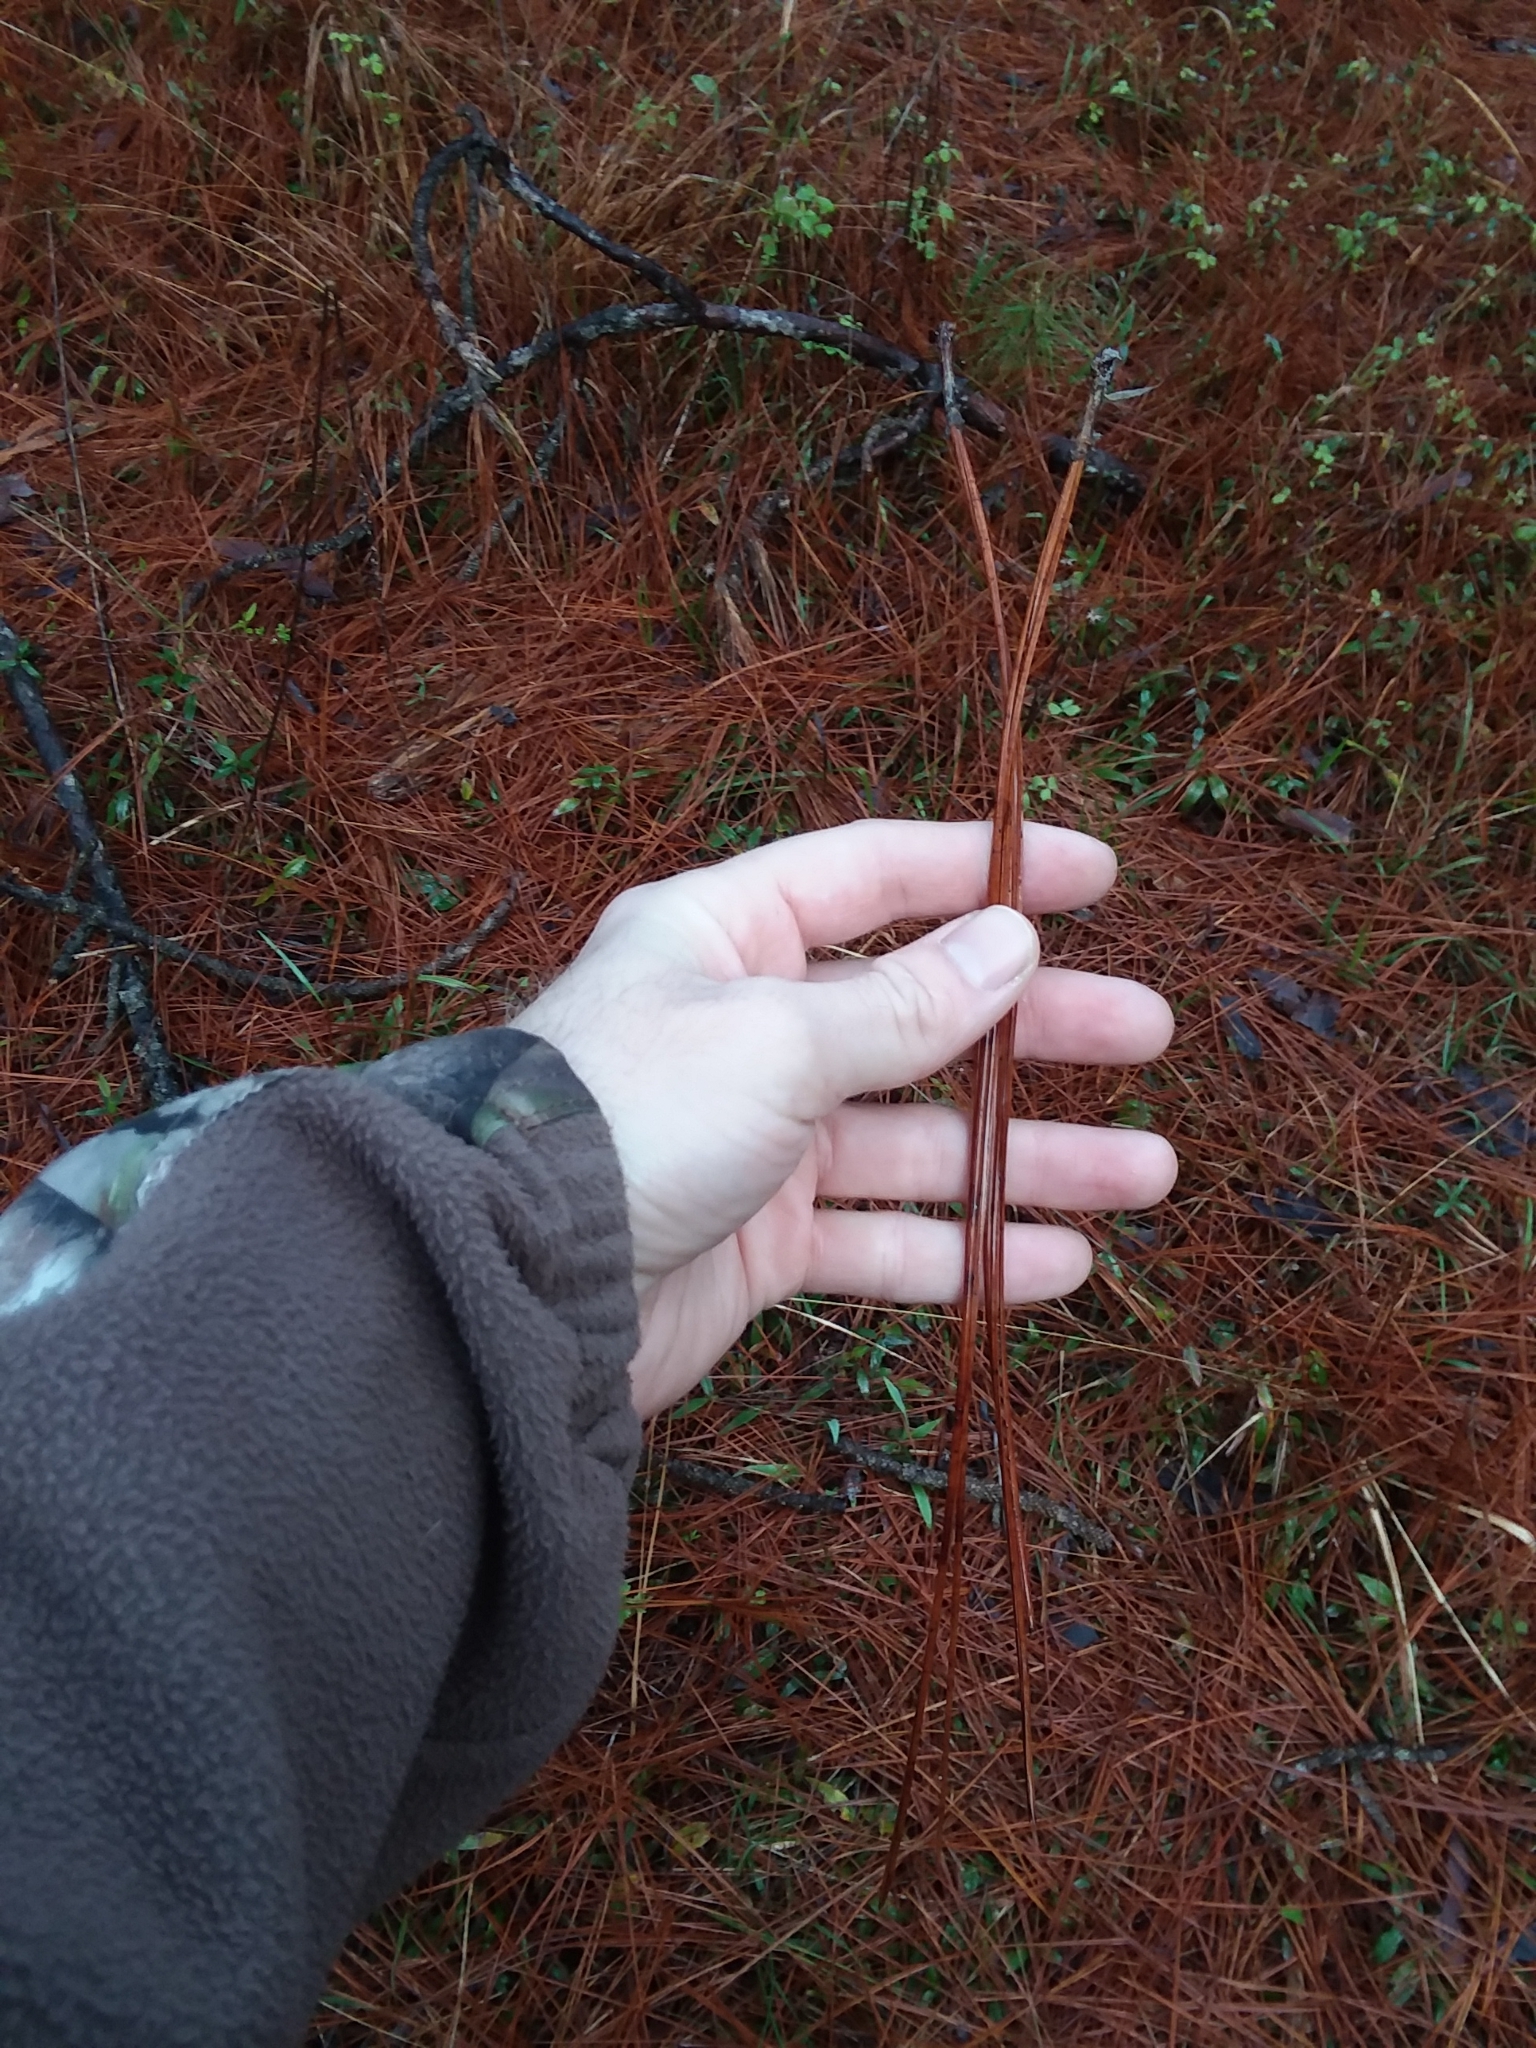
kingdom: Plantae
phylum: Tracheophyta
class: Pinopsida
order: Pinales
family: Pinaceae
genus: Pinus
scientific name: Pinus palustris
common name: Longleaf pine
